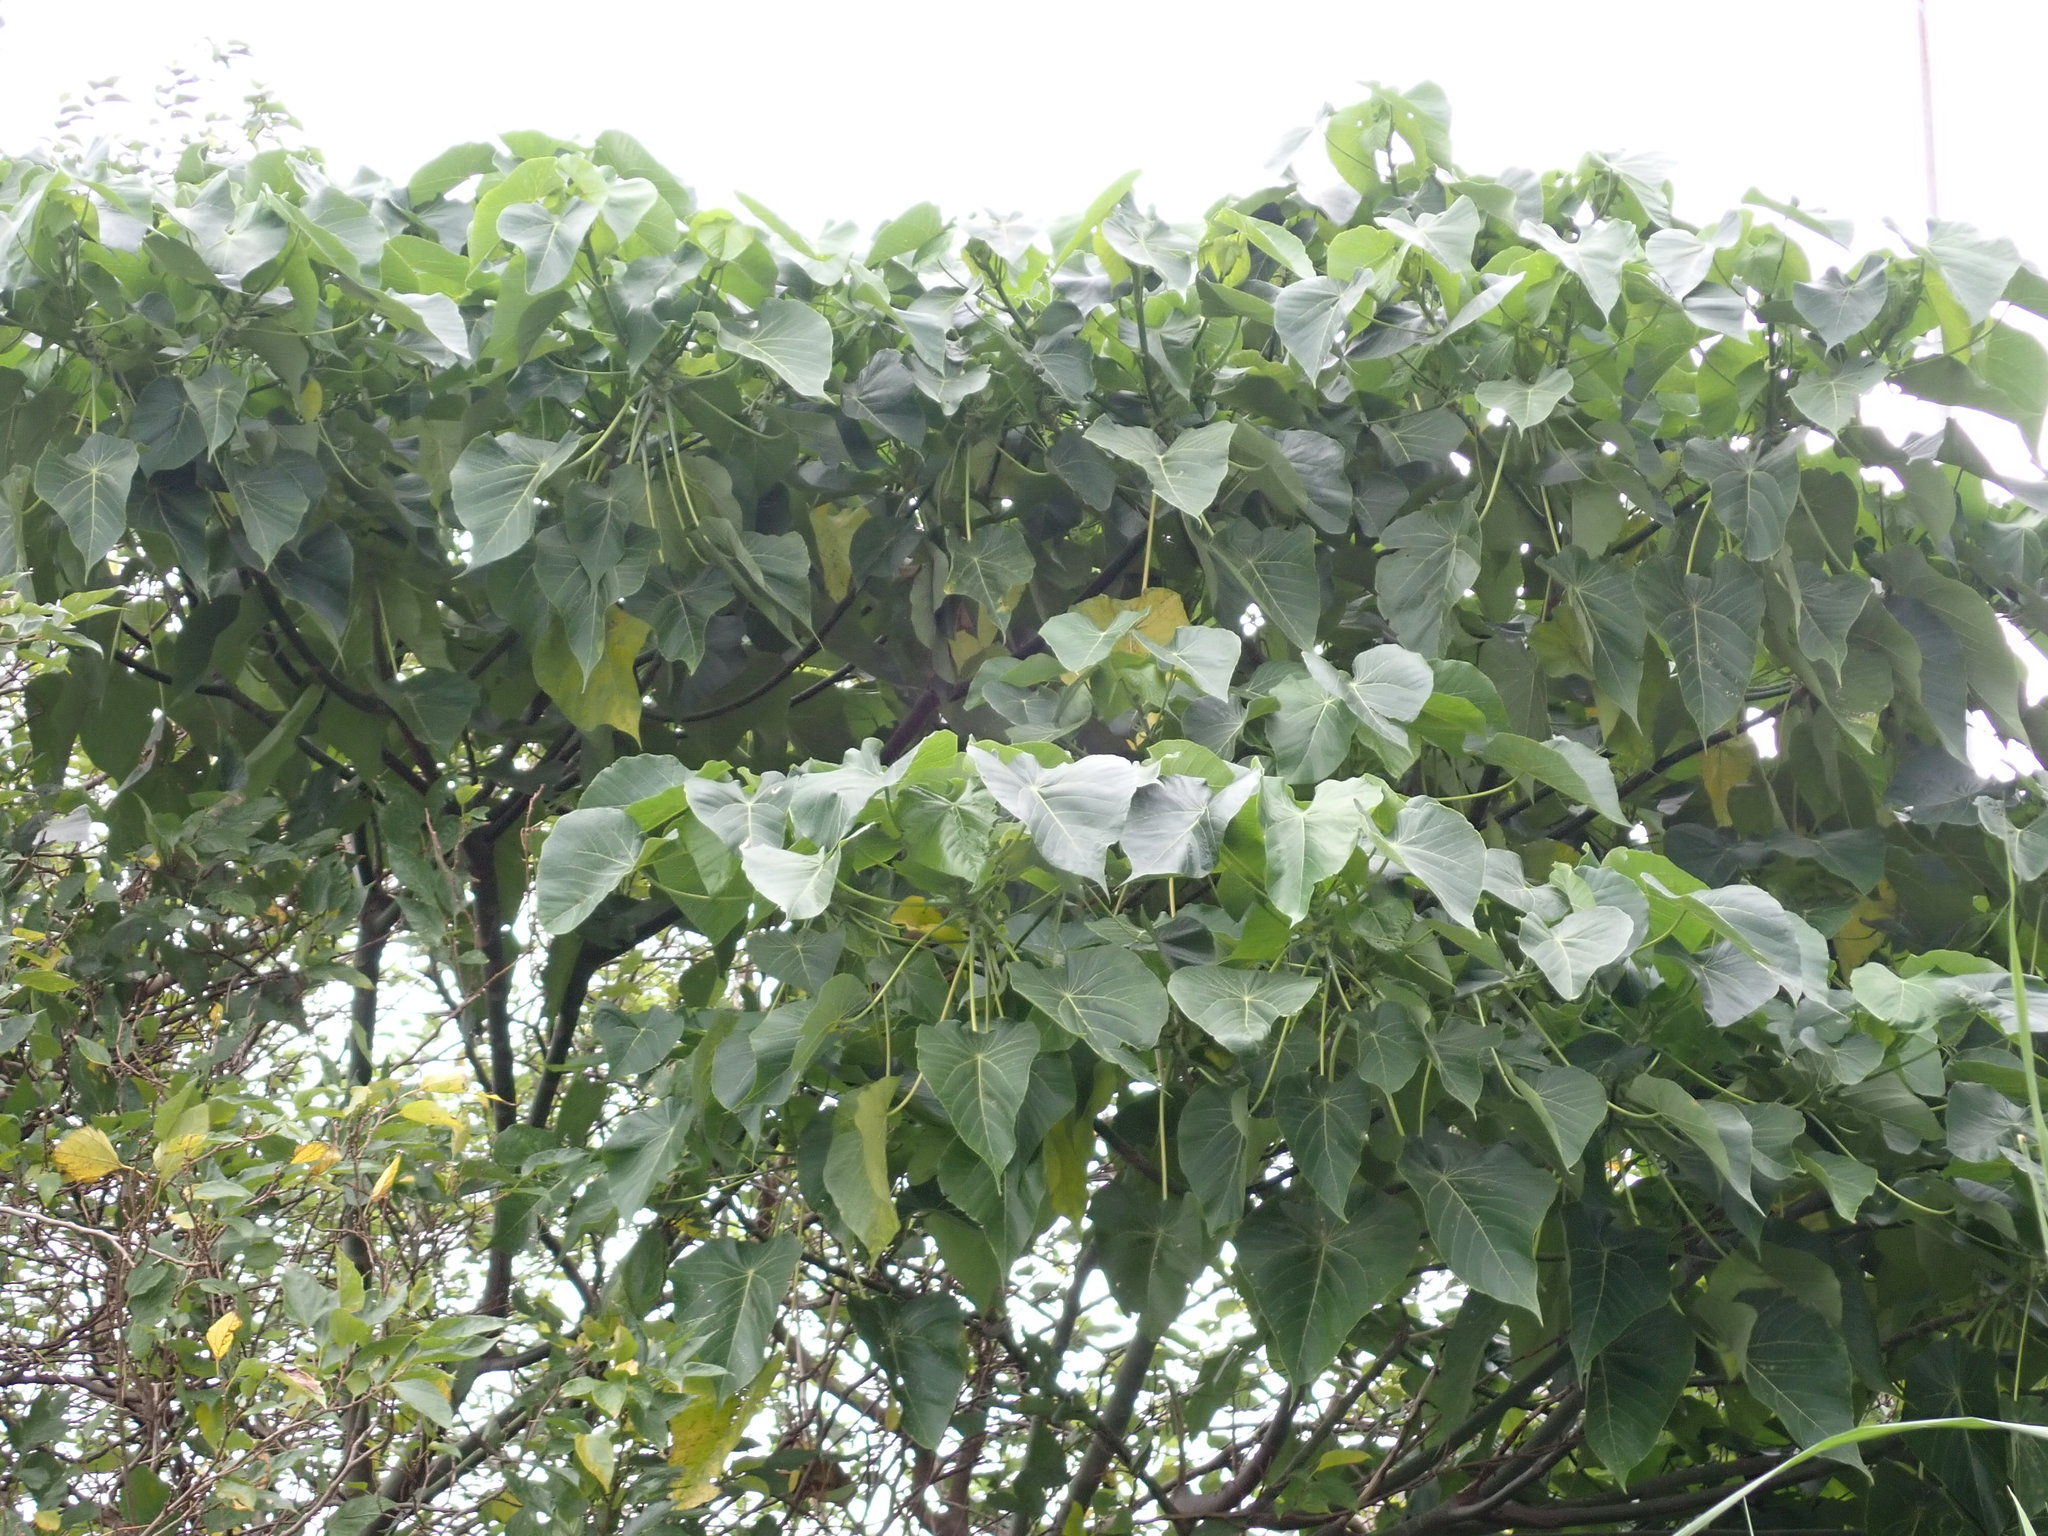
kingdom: Plantae
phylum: Tracheophyta
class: Magnoliopsida
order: Malpighiales
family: Euphorbiaceae
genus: Macaranga
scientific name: Macaranga tanarius
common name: Parasol leaf tree
